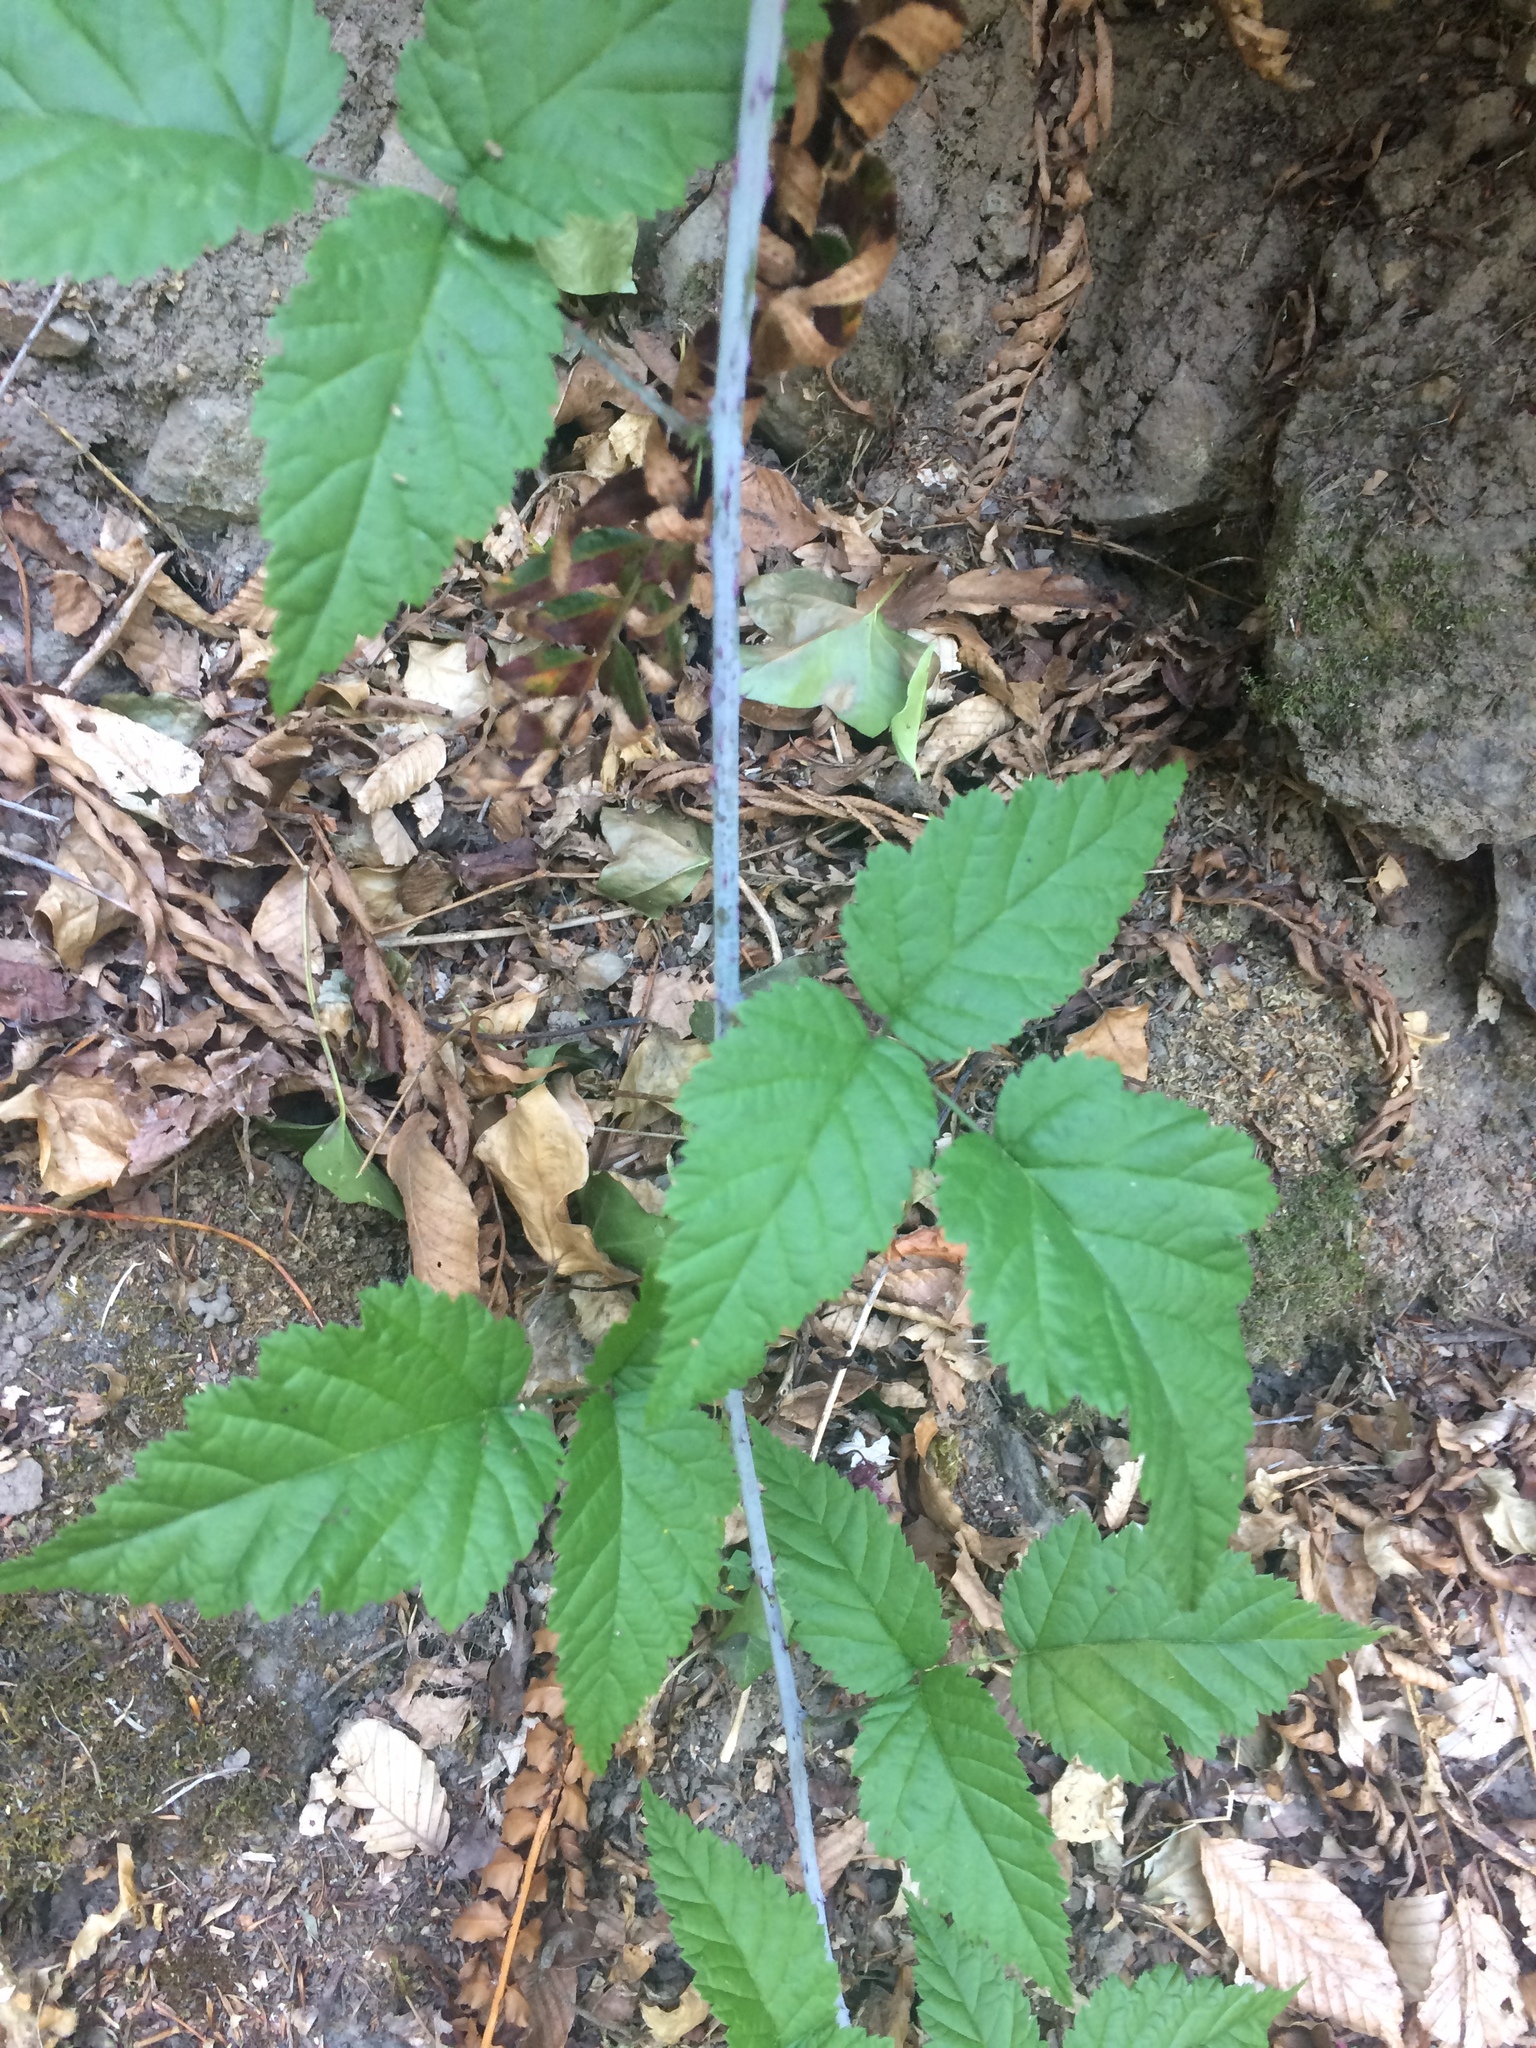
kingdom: Plantae
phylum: Tracheophyta
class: Magnoliopsida
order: Rosales
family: Rosaceae
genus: Rubus
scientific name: Rubus ursinus
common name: Pacific blackberry
